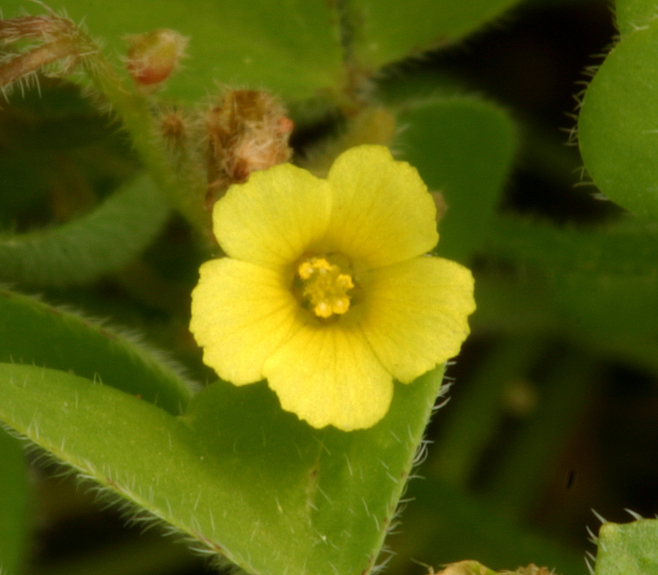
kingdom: Plantae
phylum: Tracheophyta
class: Magnoliopsida
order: Oxalidales
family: Oxalidaceae
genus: Oxalis
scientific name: Oxalis laxa
